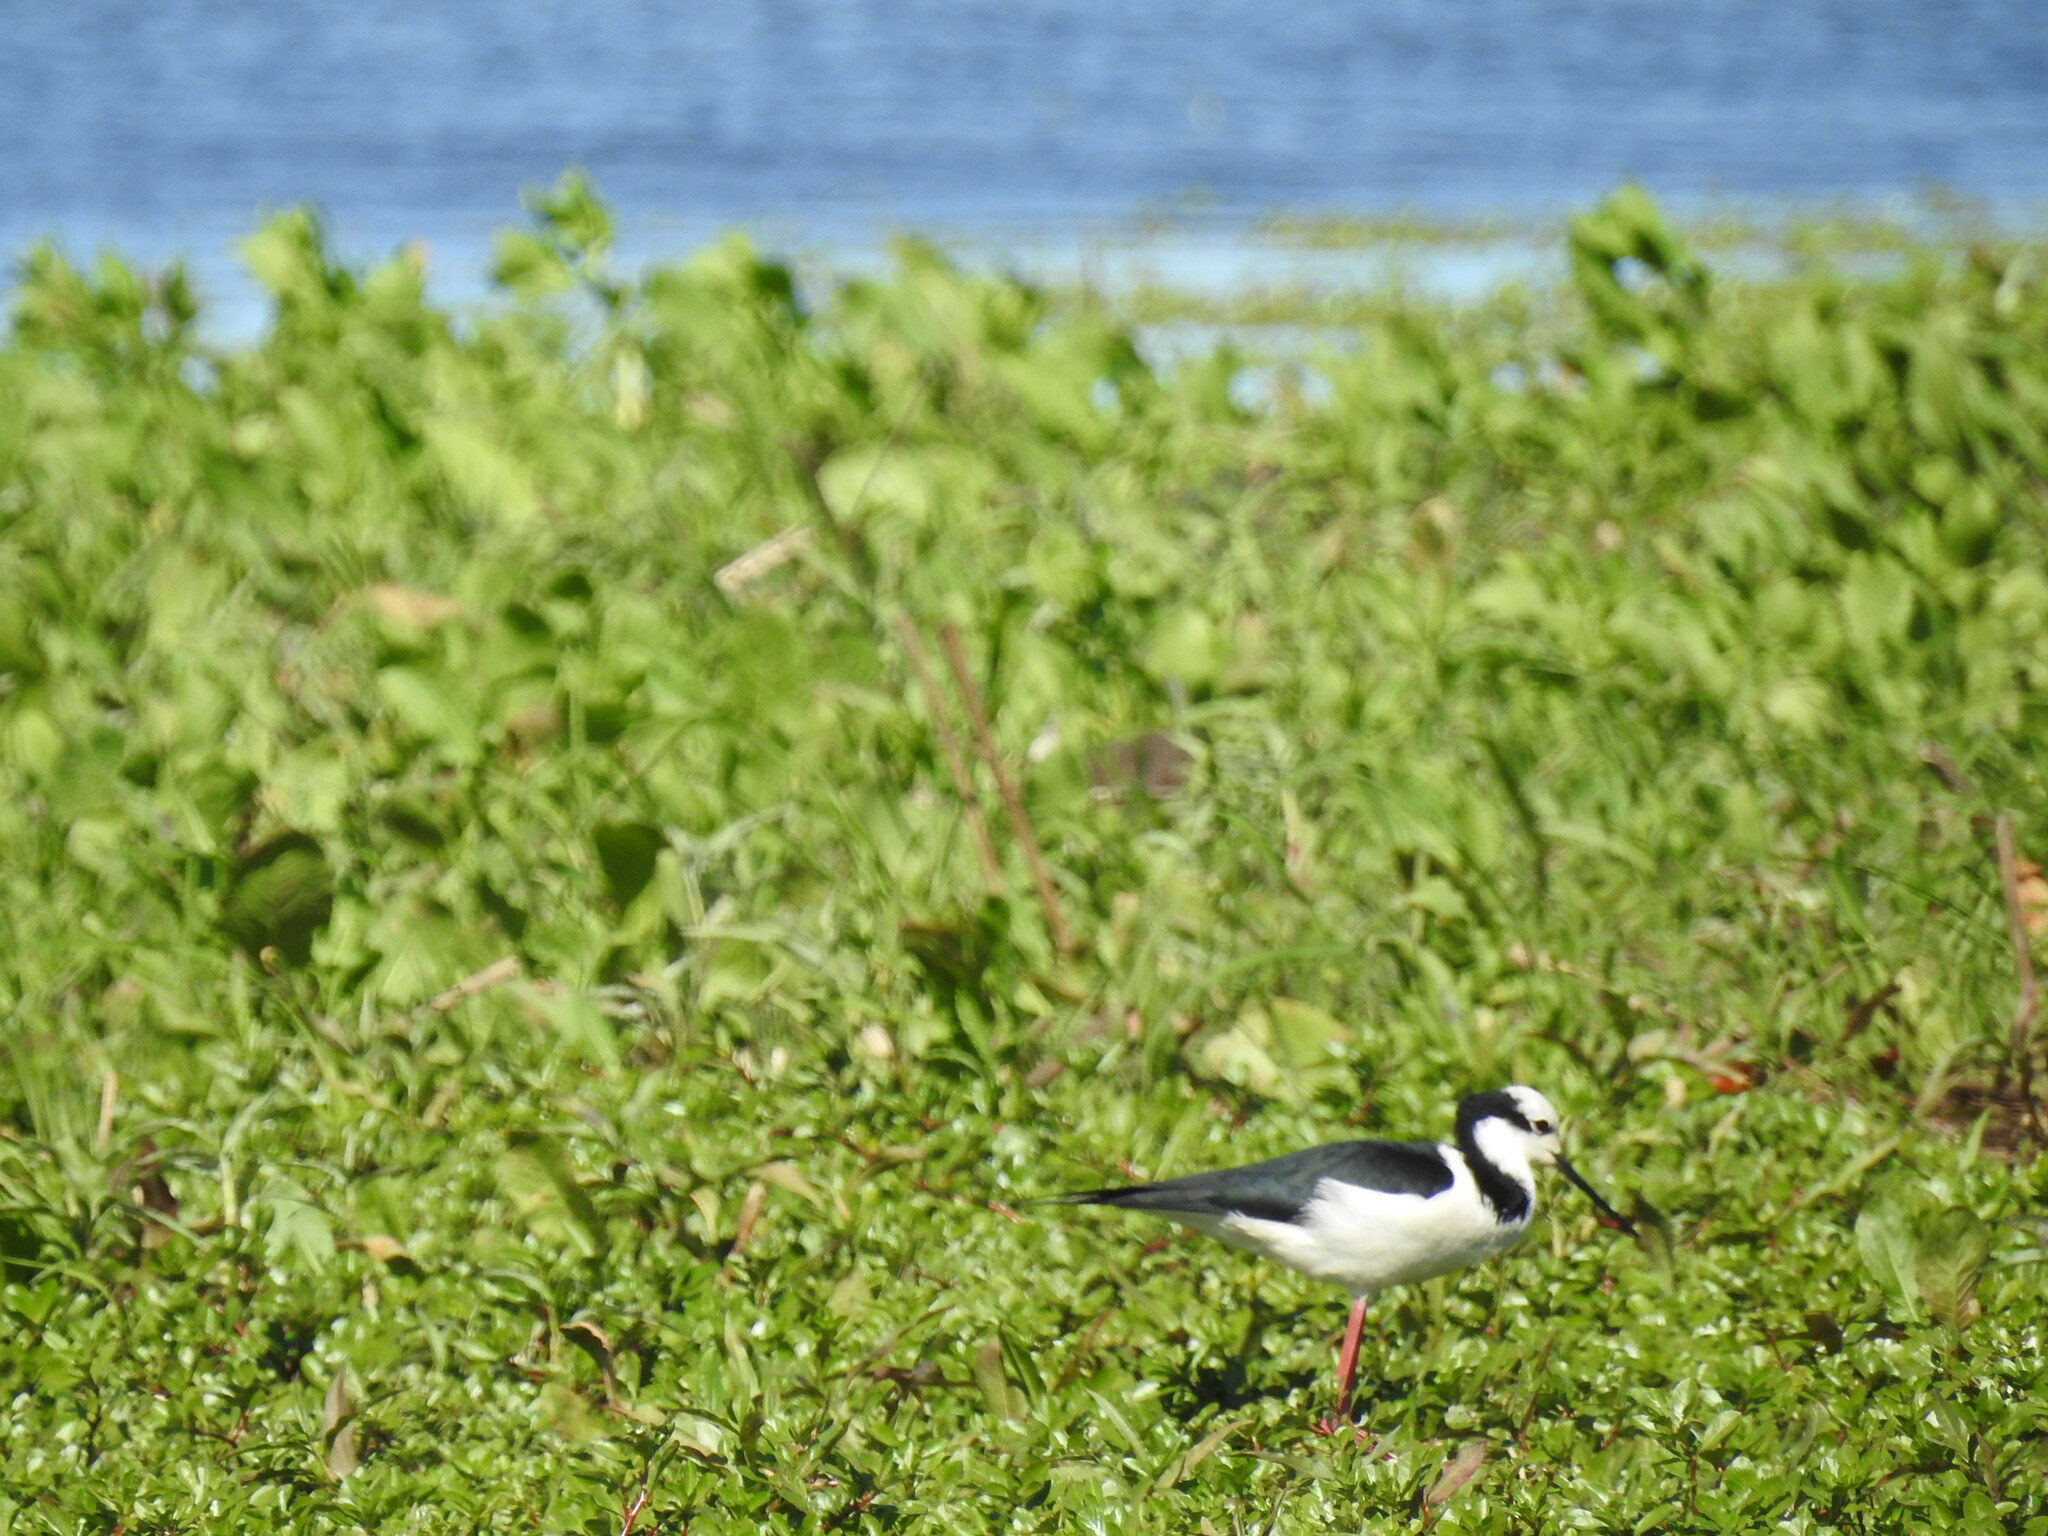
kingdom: Animalia
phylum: Chordata
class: Aves
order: Charadriiformes
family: Recurvirostridae
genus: Himantopus
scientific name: Himantopus mexicanus
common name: Black-necked stilt
